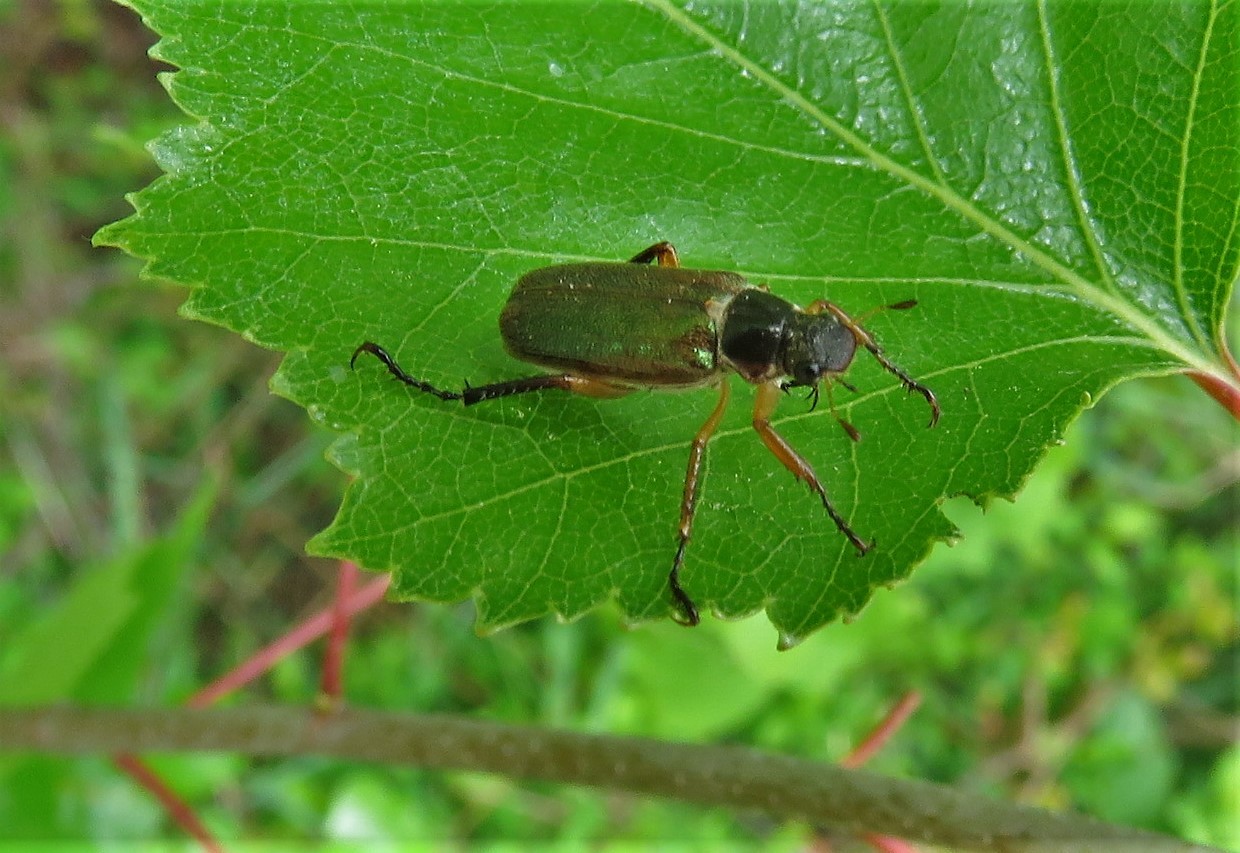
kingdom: Animalia
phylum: Arthropoda
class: Insecta
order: Coleoptera
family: Scarabaeidae
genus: Dichelonyx
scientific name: Dichelonyx elongatula
